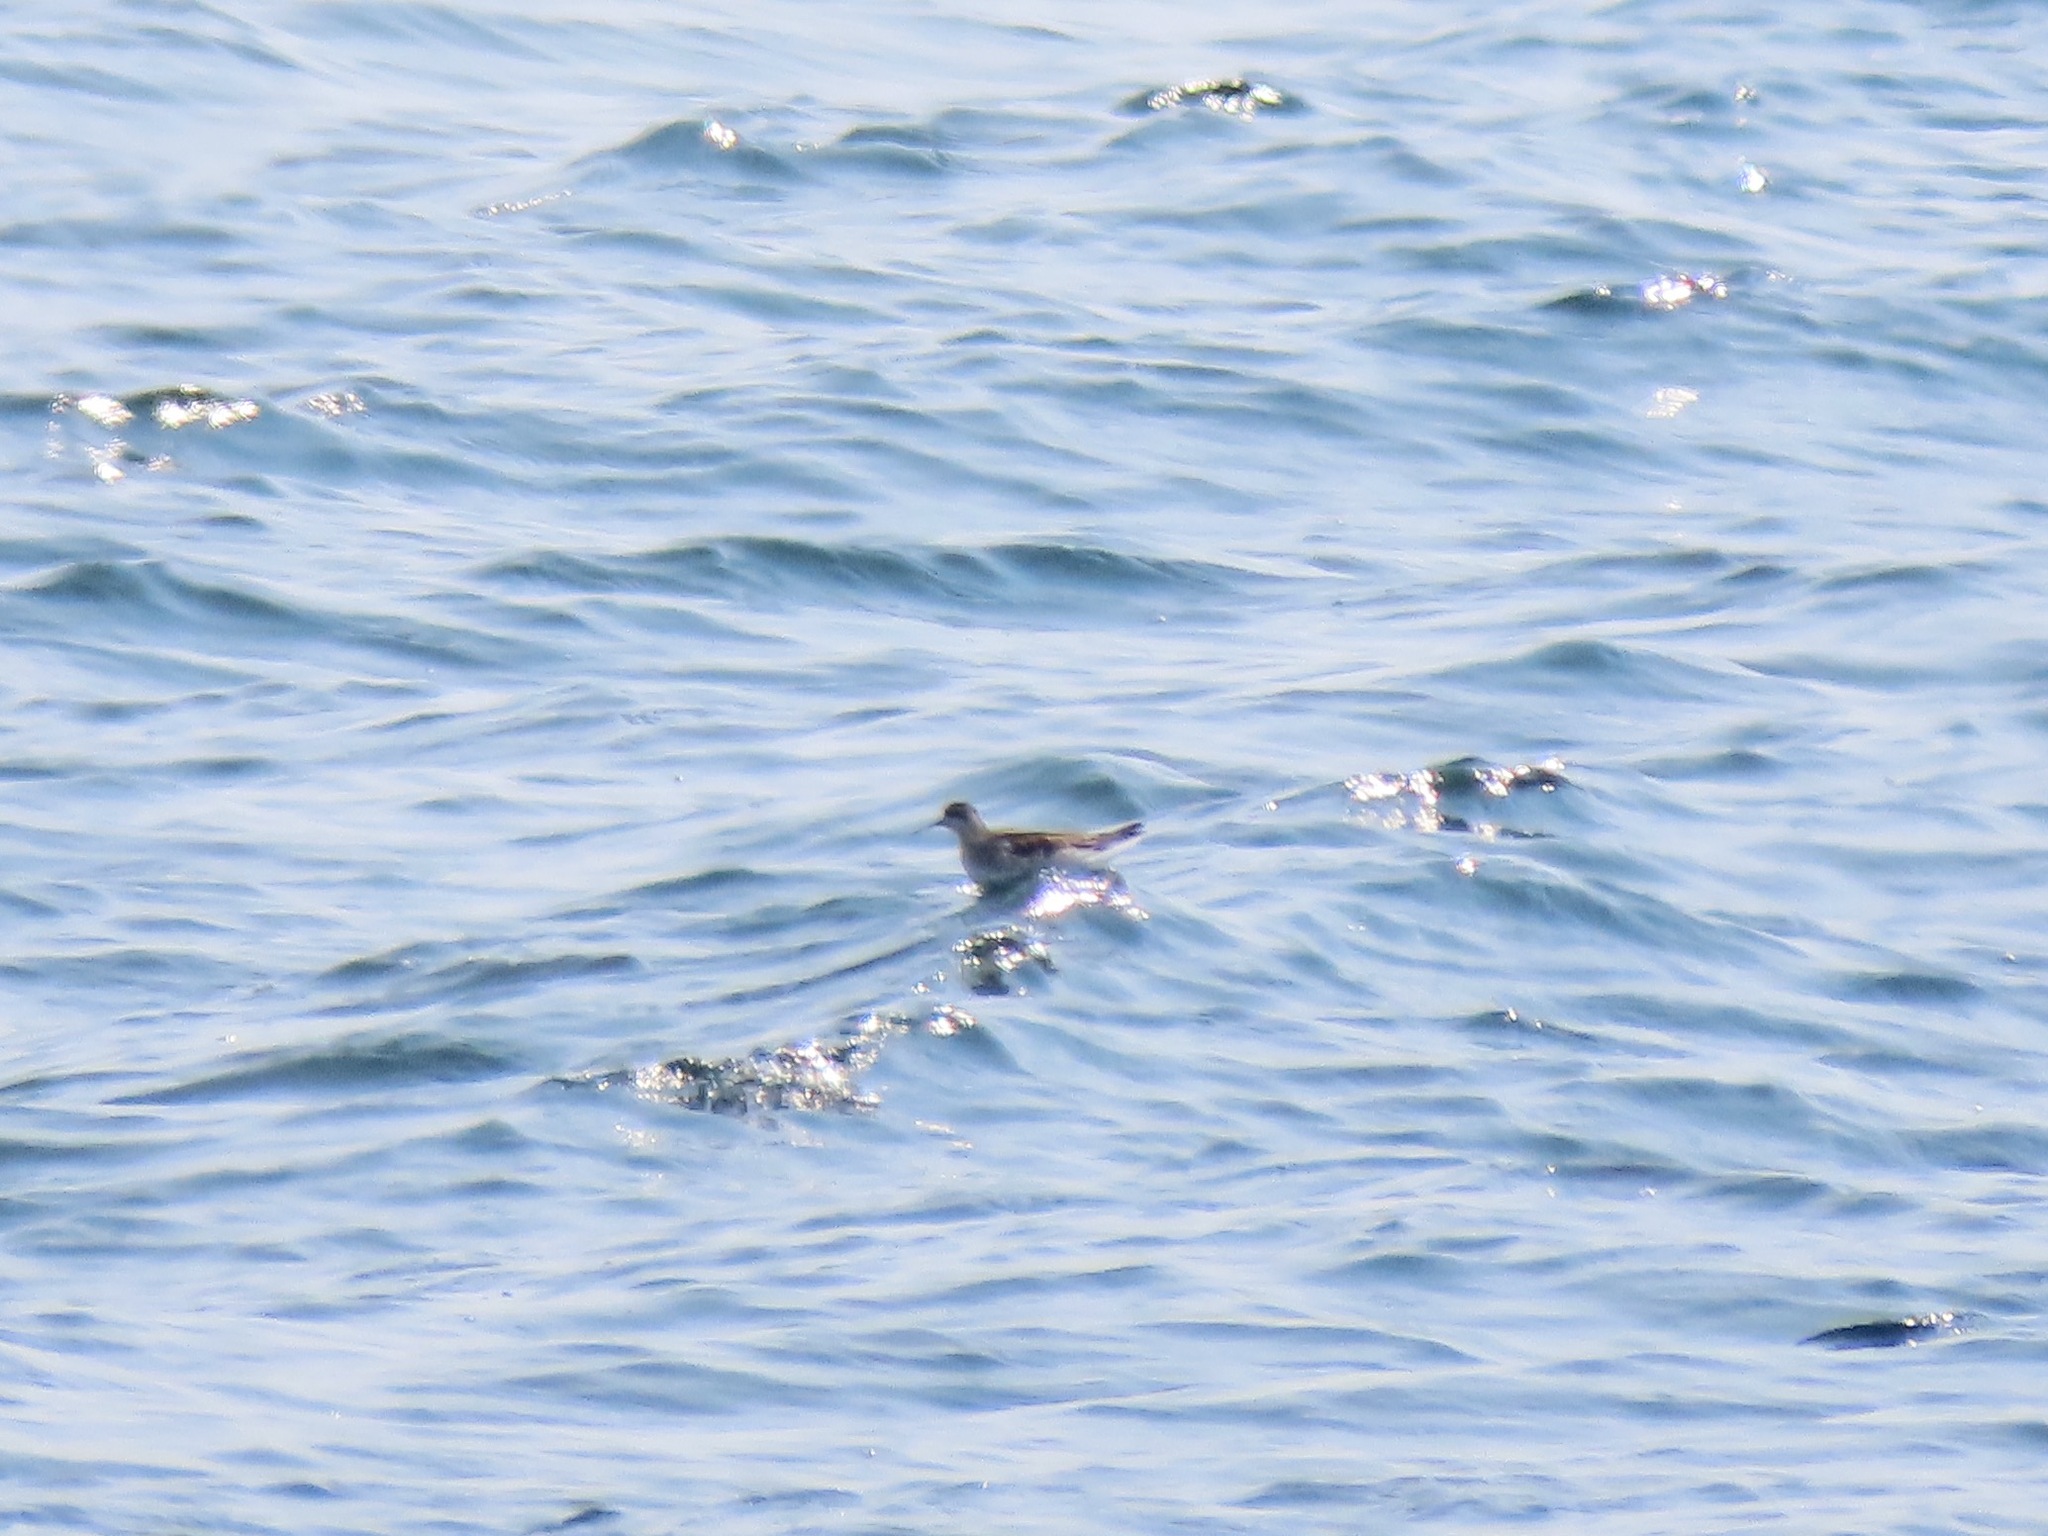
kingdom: Animalia
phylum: Chordata
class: Aves
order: Charadriiformes
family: Scolopacidae
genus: Phalaropus
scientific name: Phalaropus lobatus
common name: Red-necked phalarope
